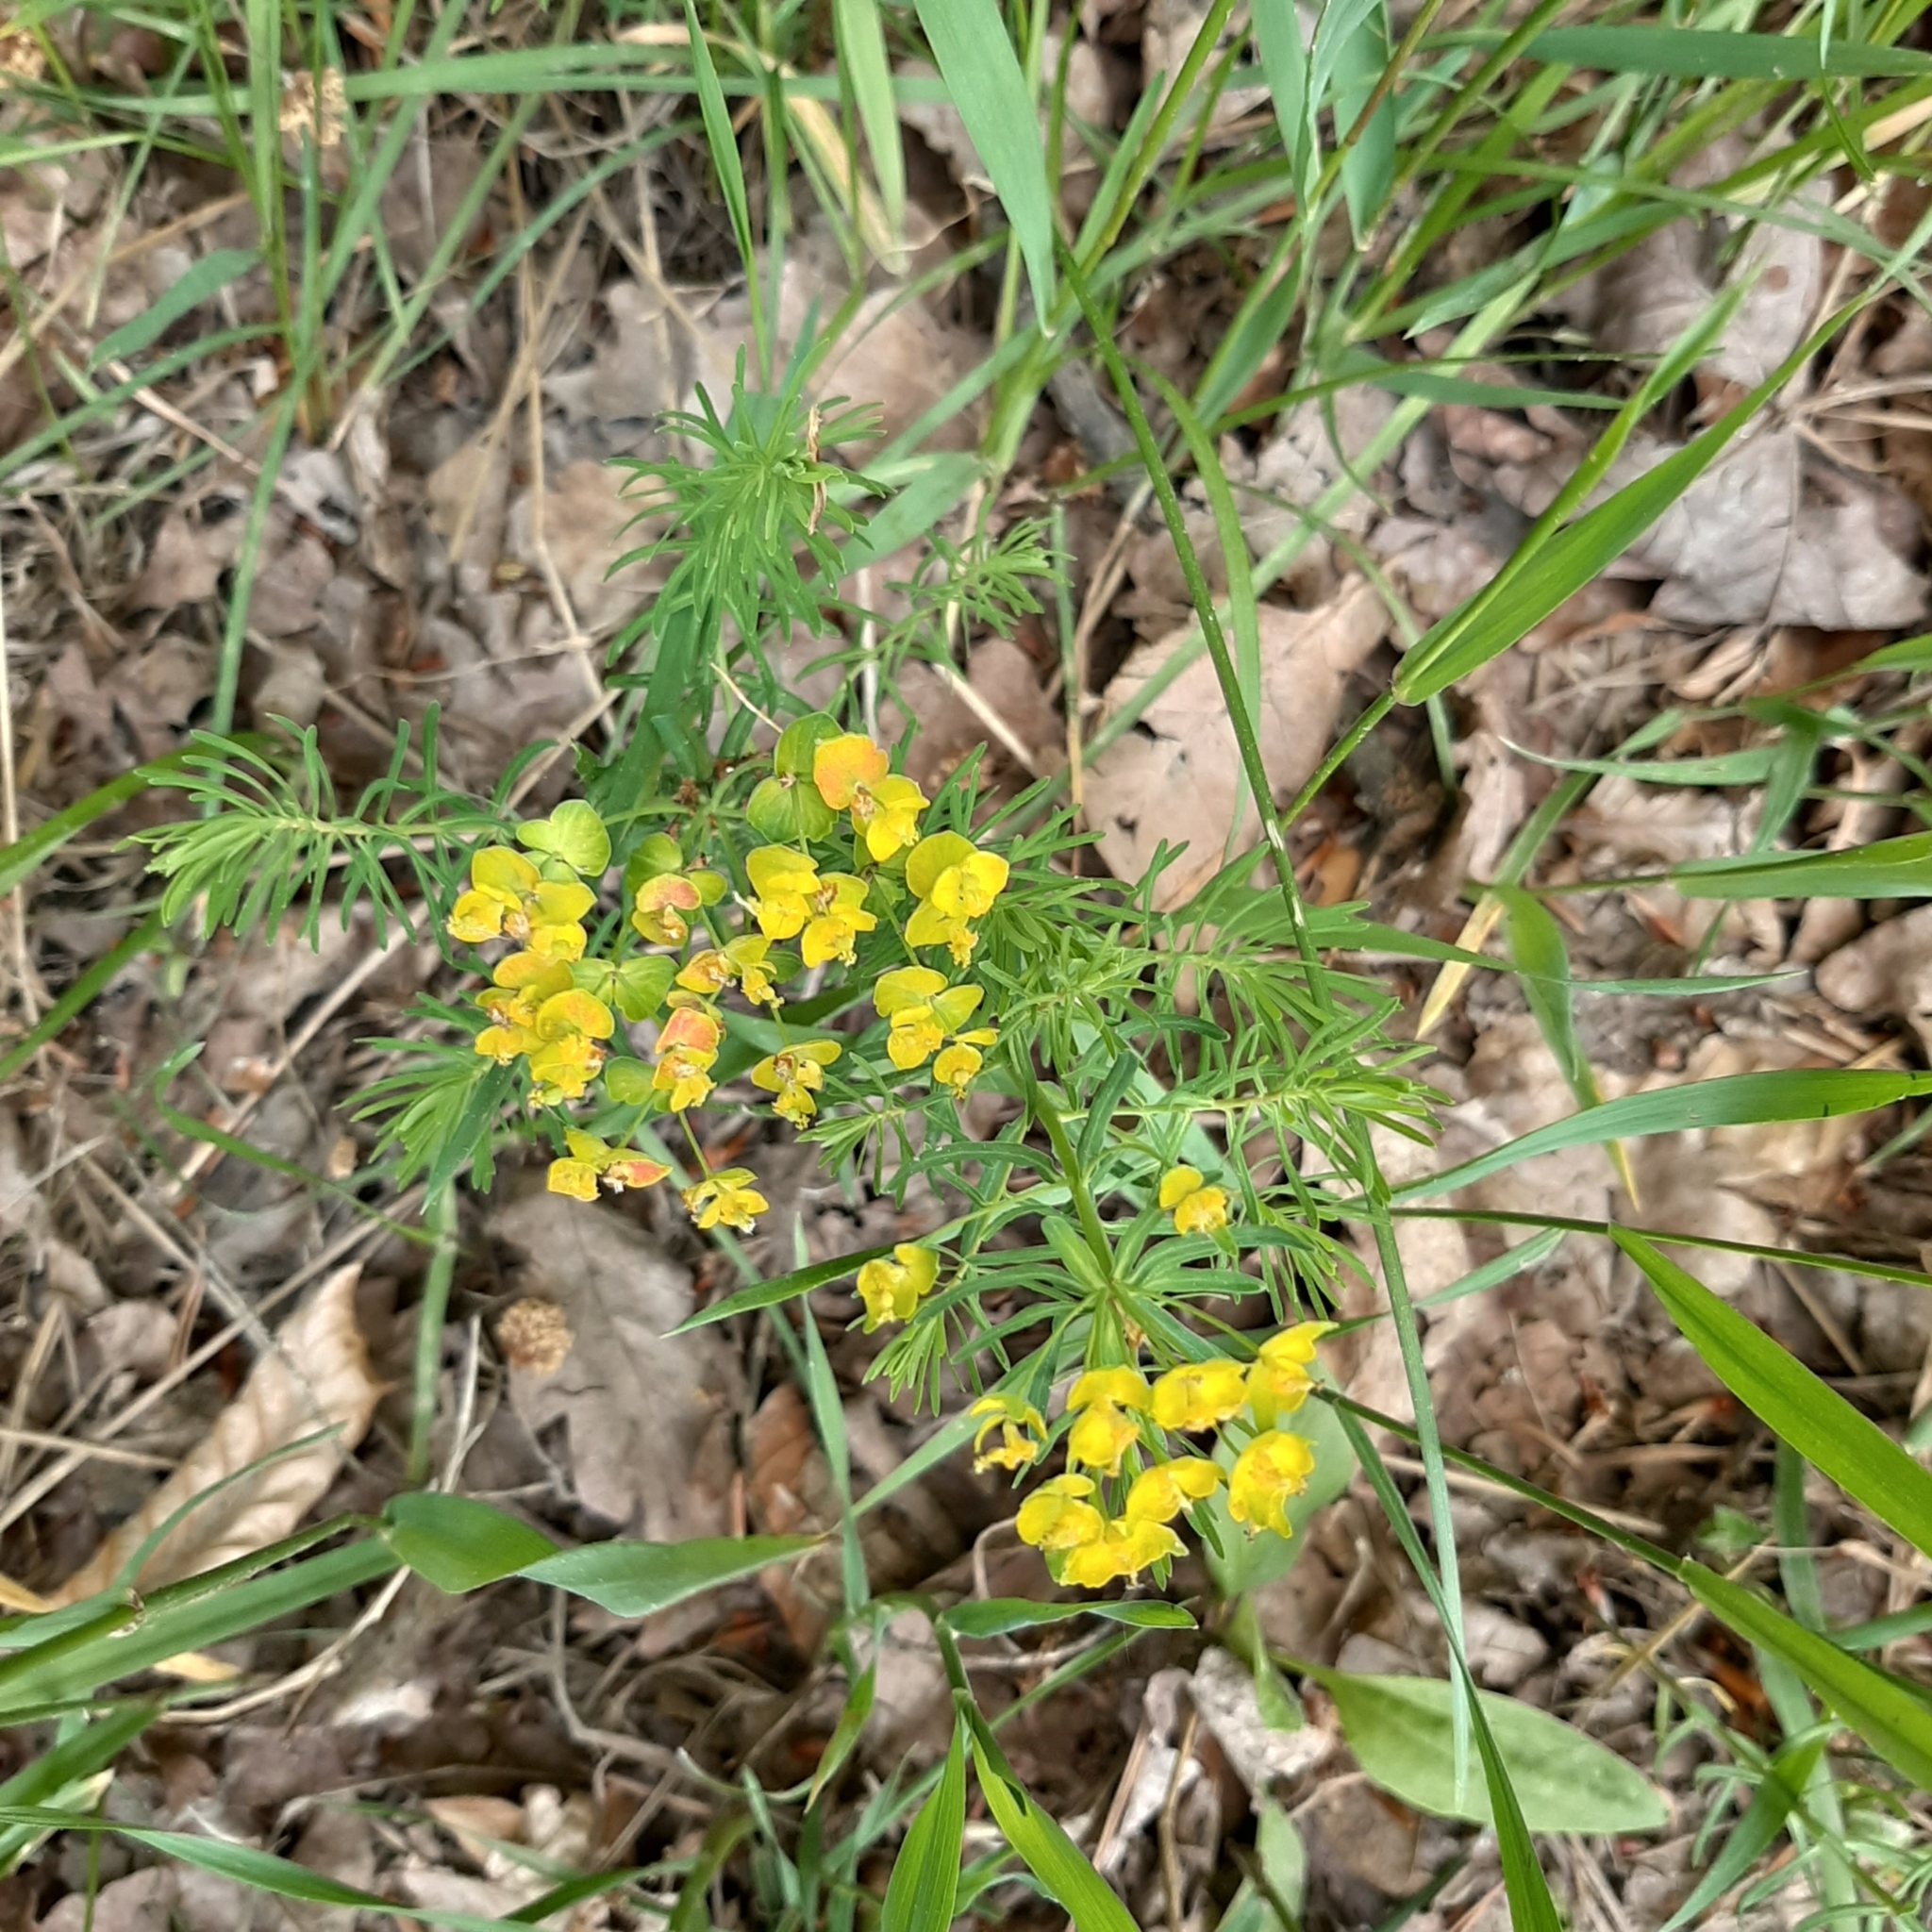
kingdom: Plantae
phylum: Tracheophyta
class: Magnoliopsida
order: Malpighiales
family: Euphorbiaceae
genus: Euphorbia
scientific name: Euphorbia cyparissias
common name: Cypress spurge
